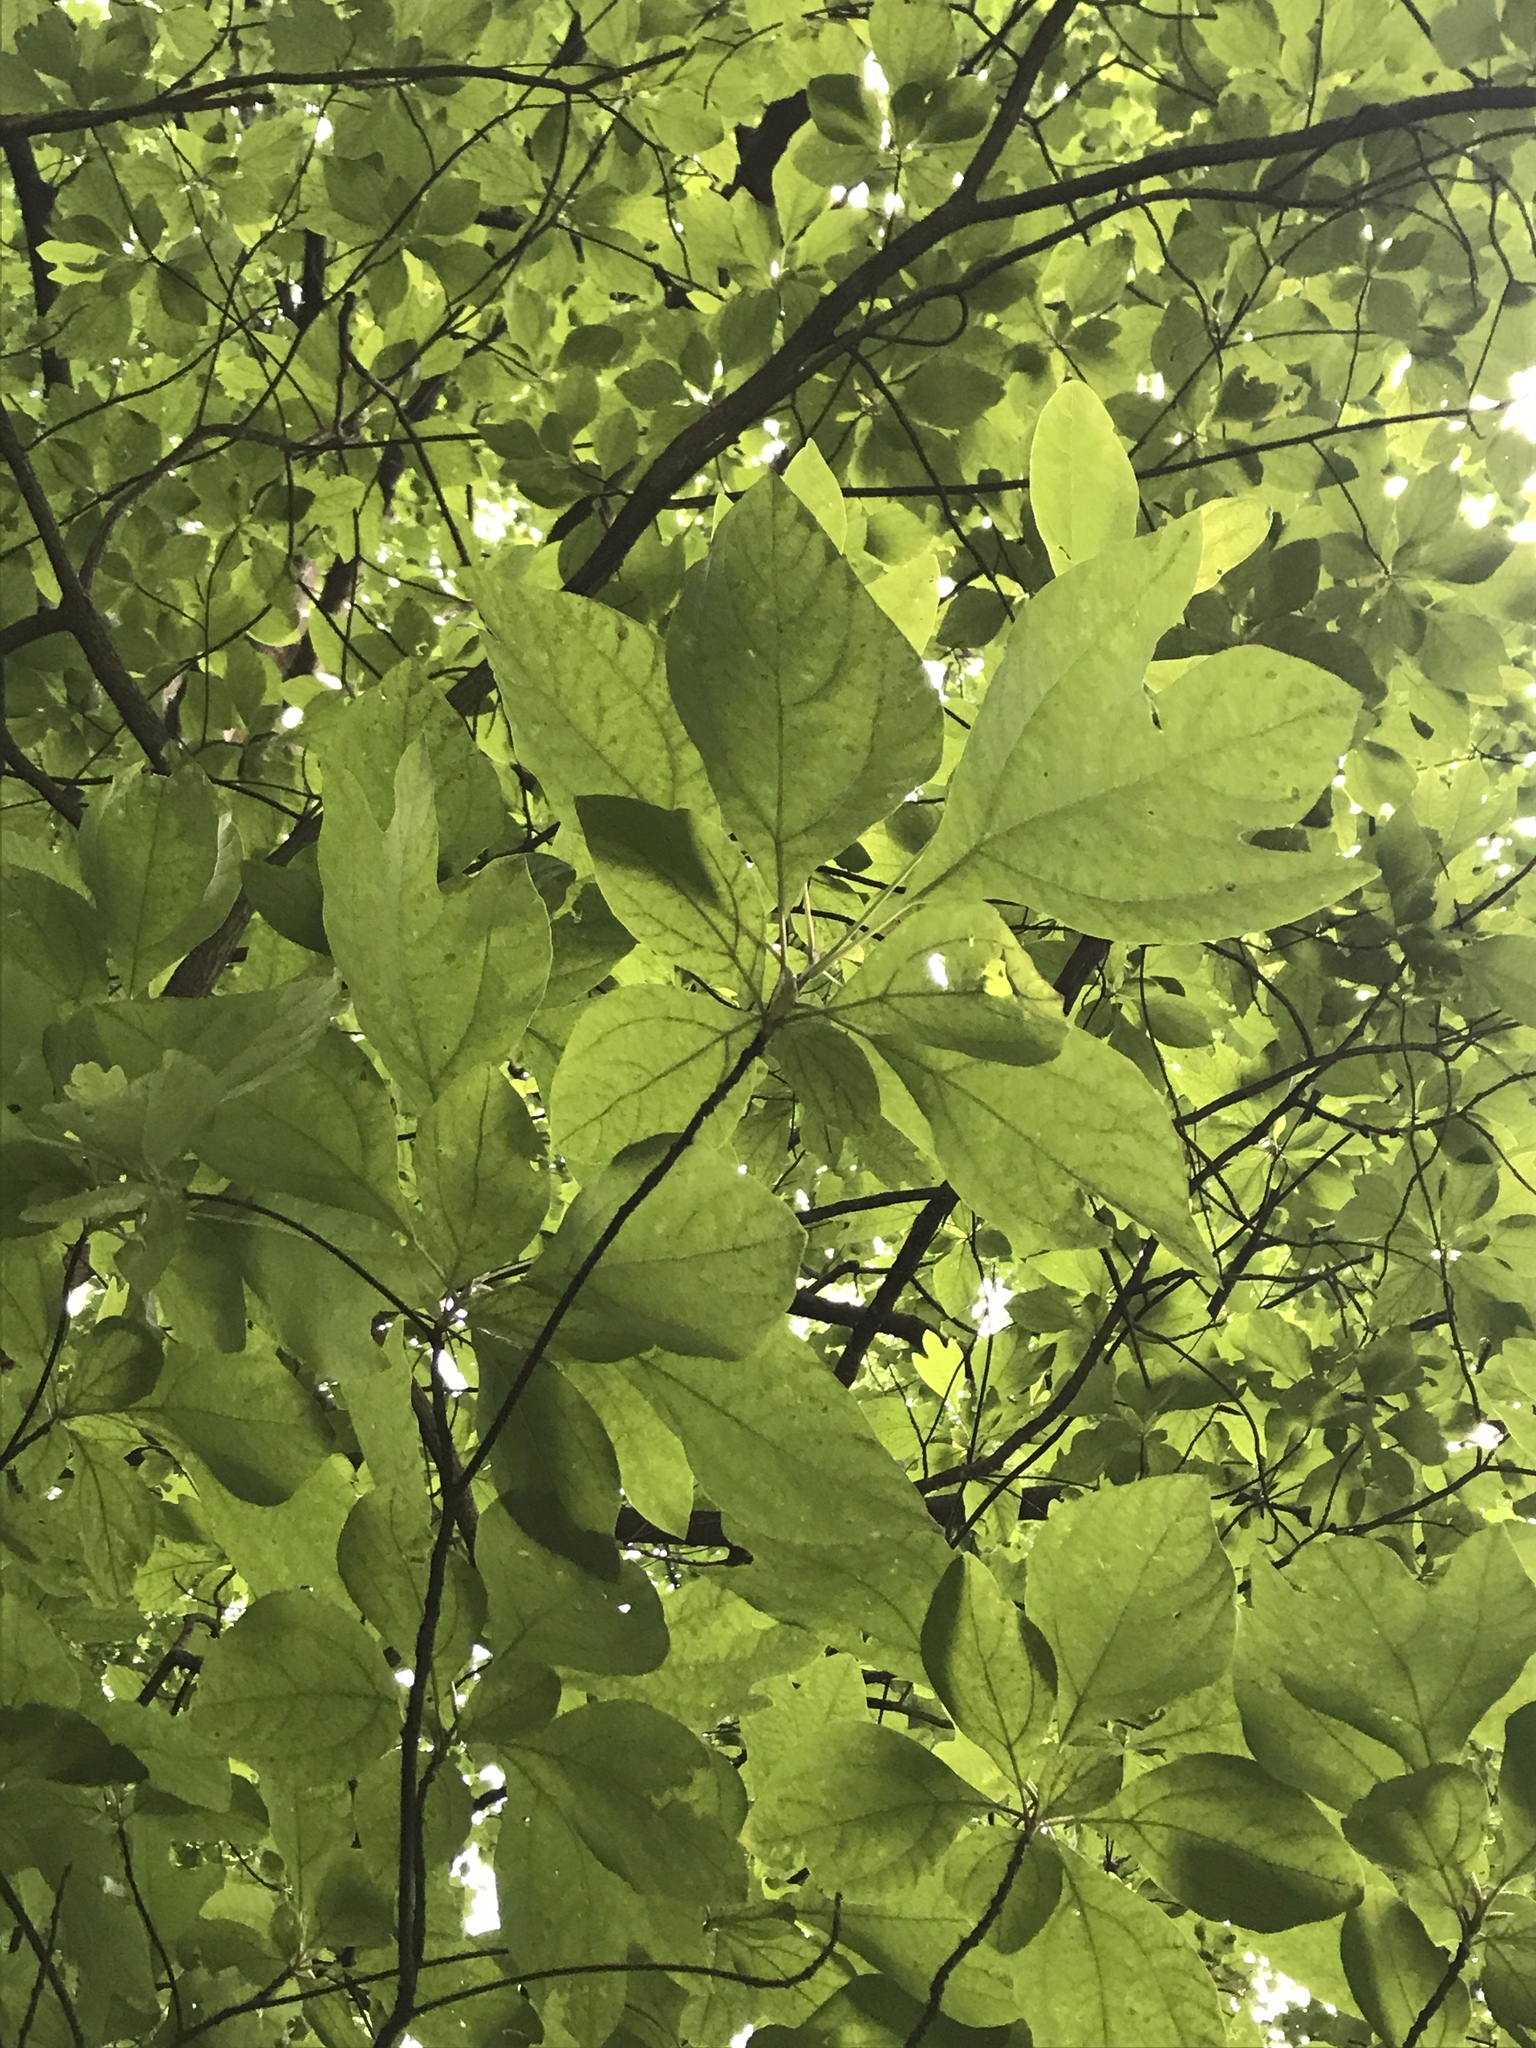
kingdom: Plantae
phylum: Tracheophyta
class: Magnoliopsida
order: Laurales
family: Lauraceae
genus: Sassafras
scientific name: Sassafras albidum
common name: Sassafras
